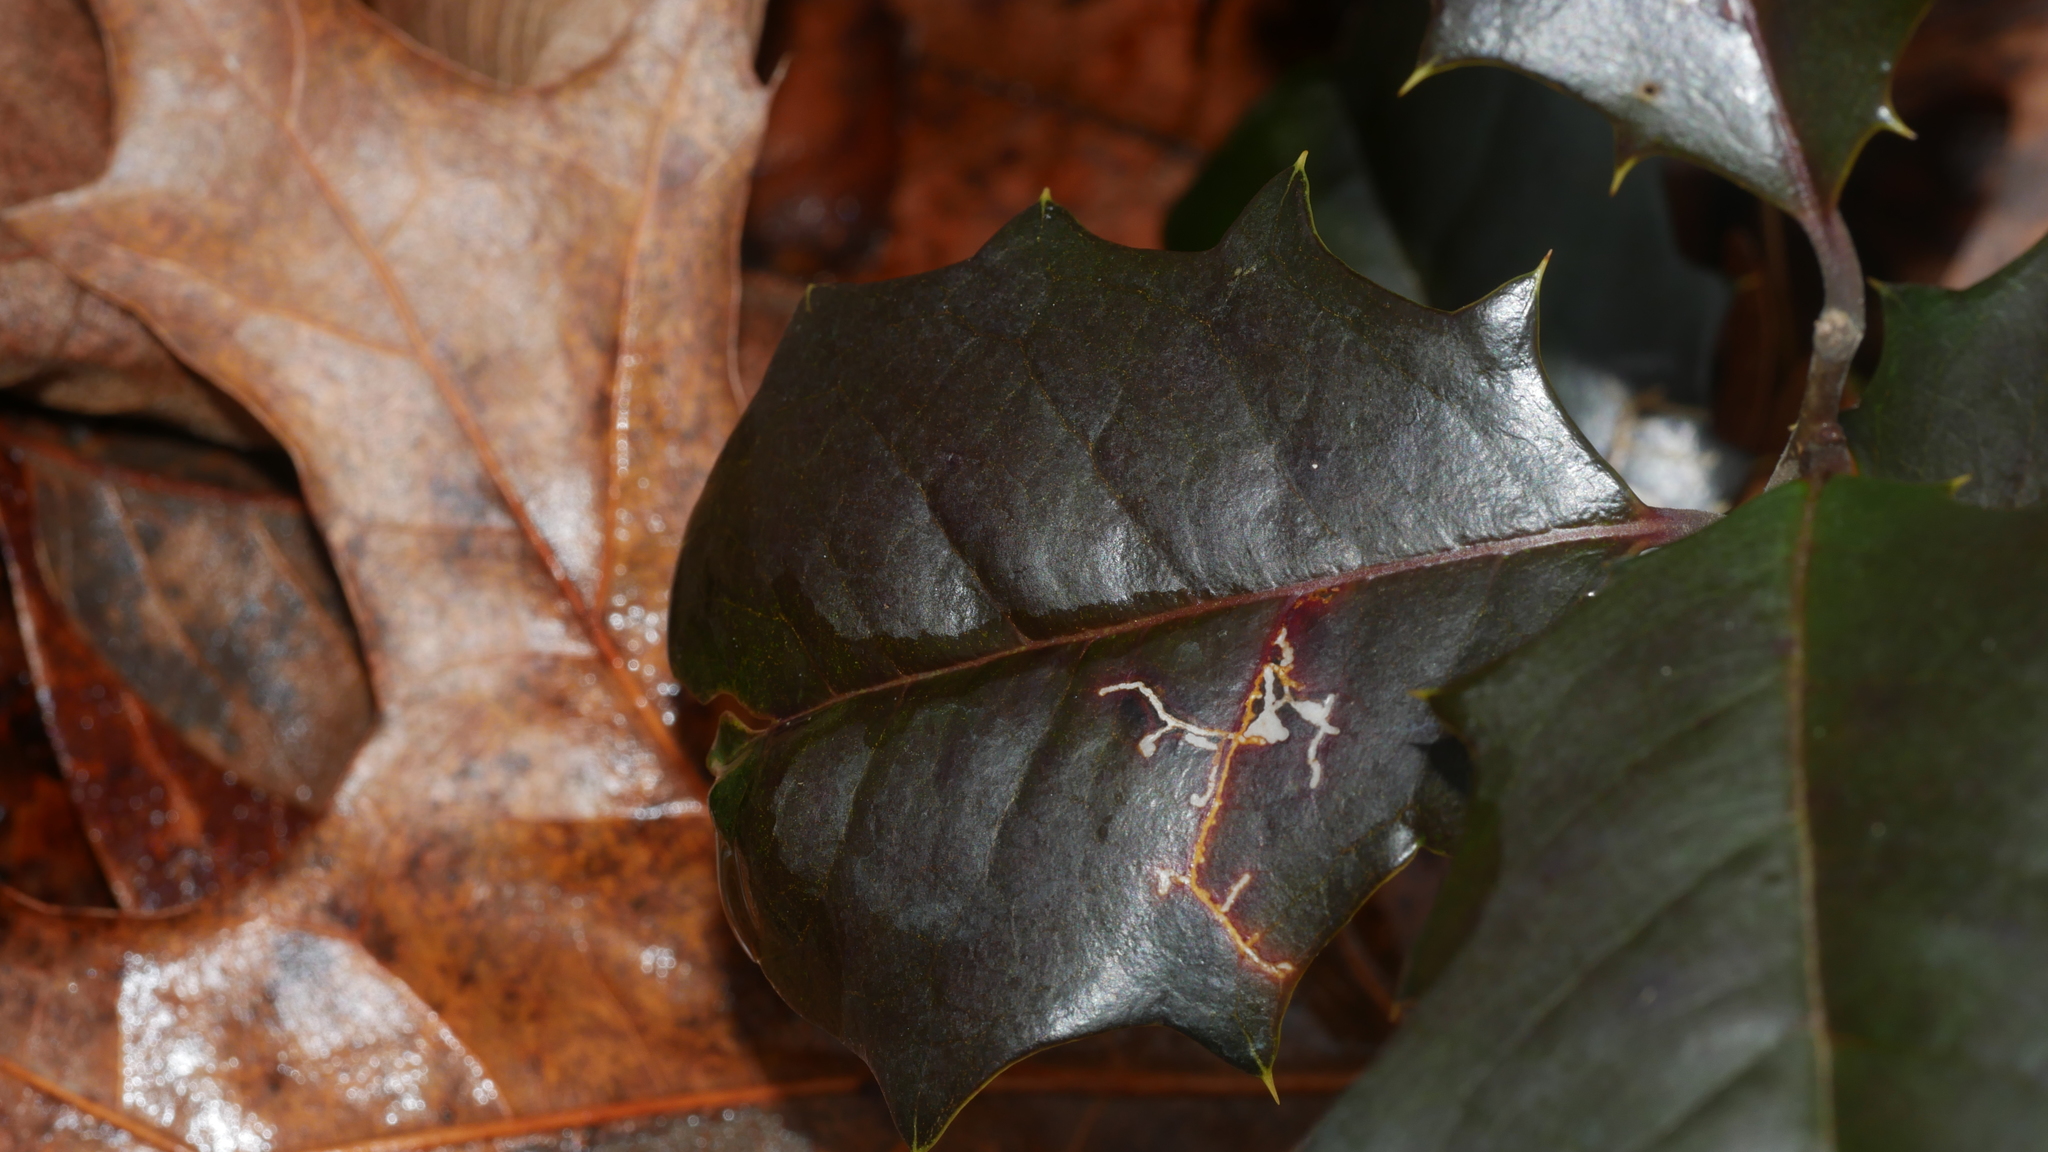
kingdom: Animalia
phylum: Arthropoda
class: Insecta
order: Lepidoptera
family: Tortricidae
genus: Rhopobota
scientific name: Rhopobota
